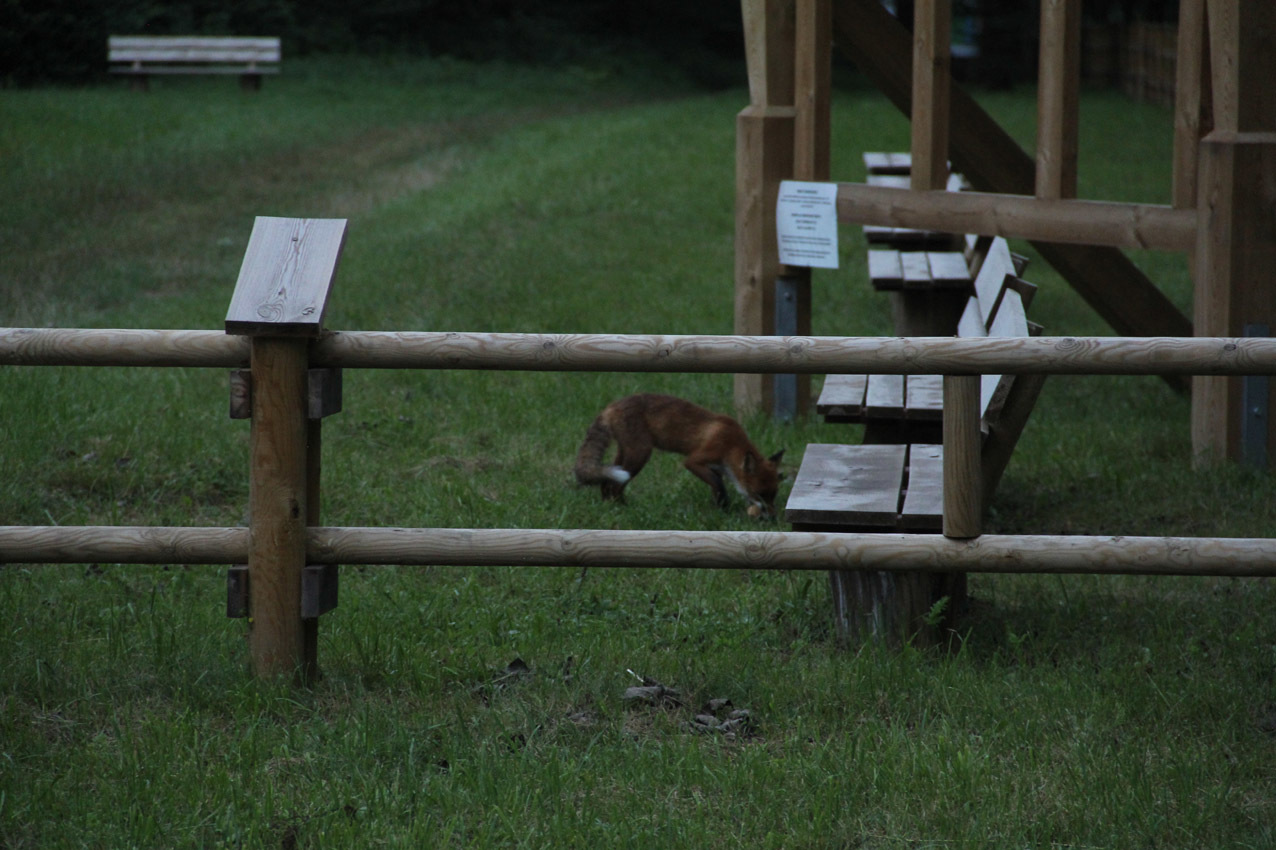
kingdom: Animalia
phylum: Chordata
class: Mammalia
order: Carnivora
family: Canidae
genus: Vulpes
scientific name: Vulpes vulpes
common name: Red fox
